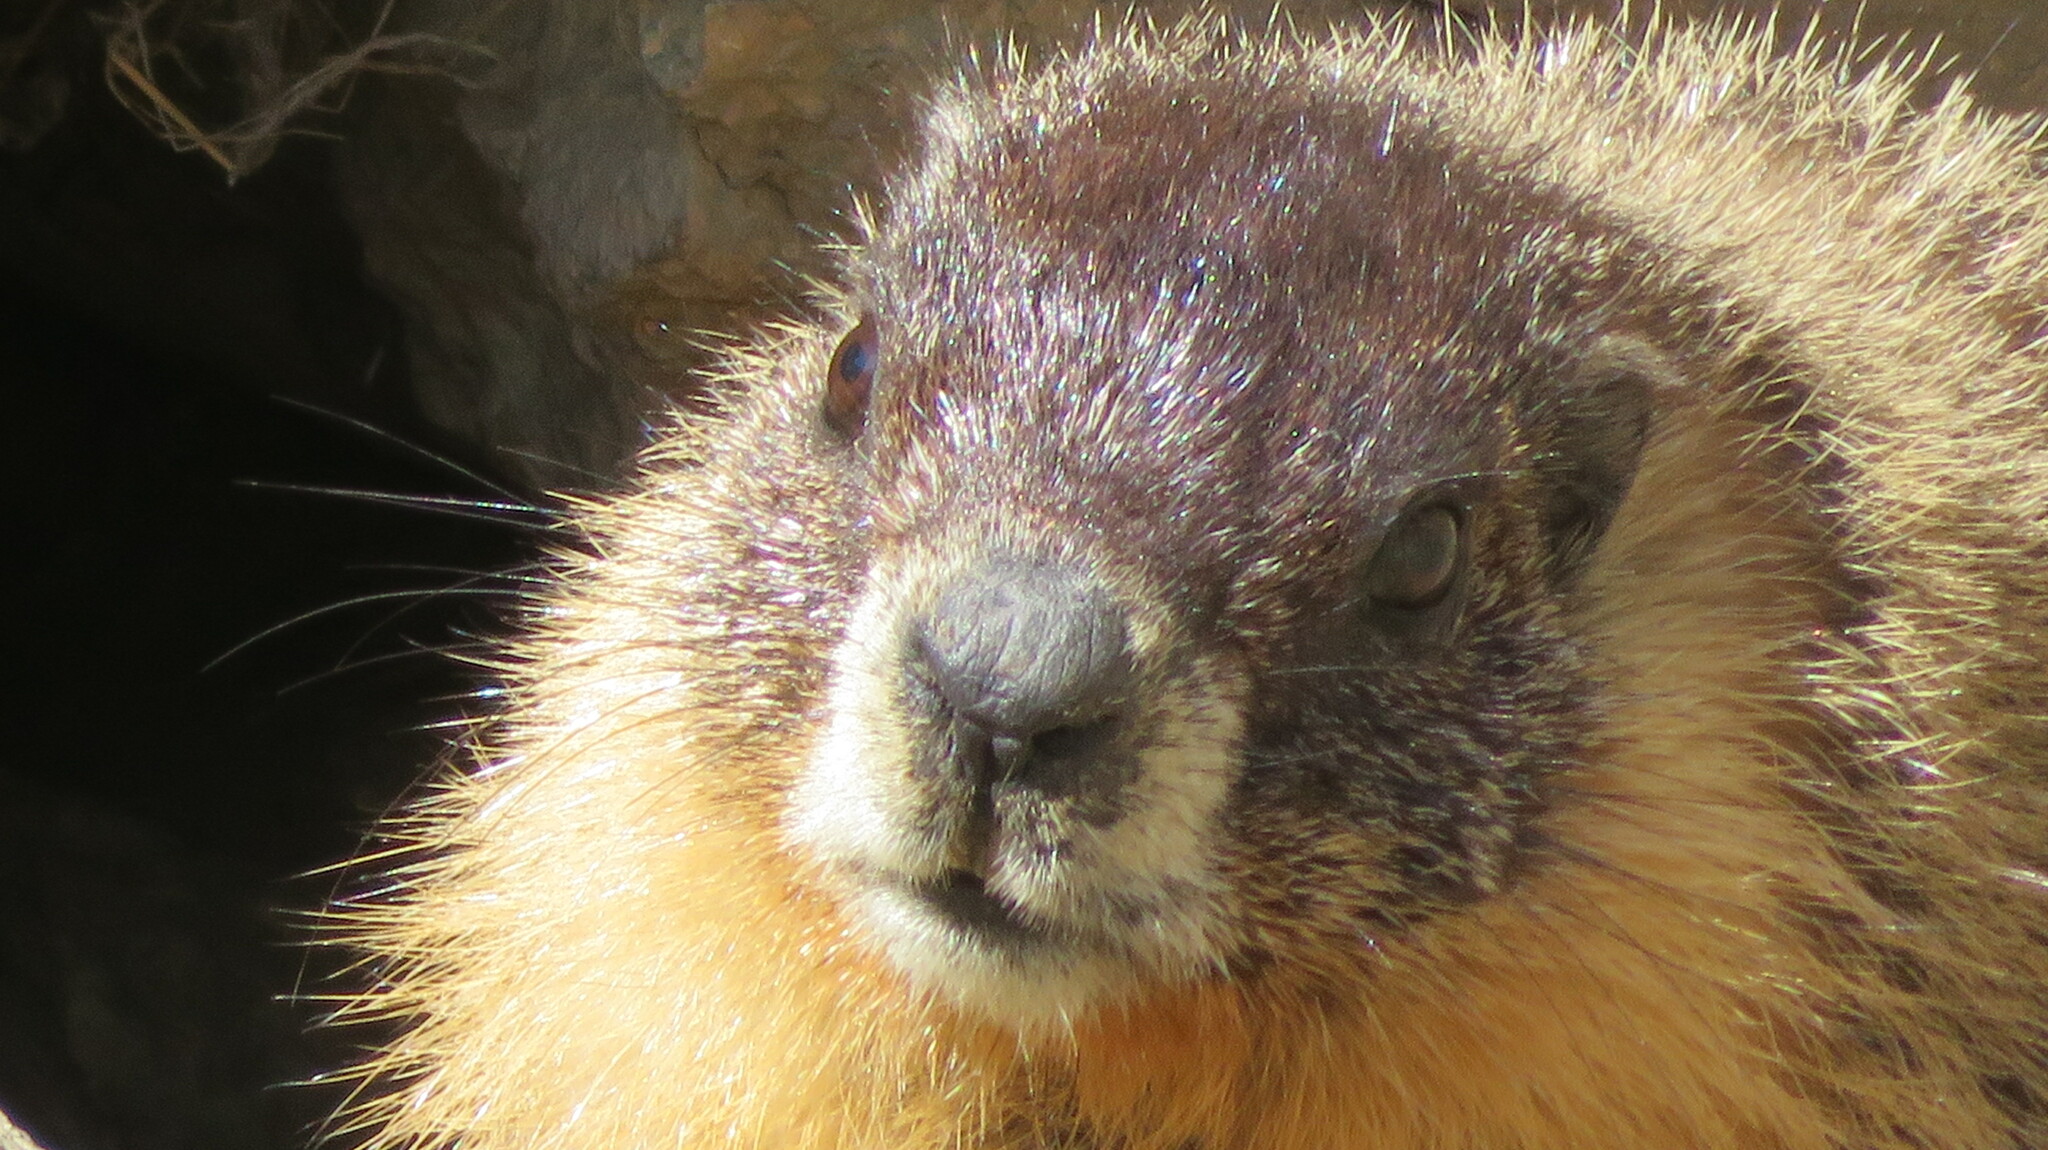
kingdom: Animalia
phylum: Chordata
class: Mammalia
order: Rodentia
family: Sciuridae
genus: Marmota
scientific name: Marmota flaviventris
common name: Yellow-bellied marmot
